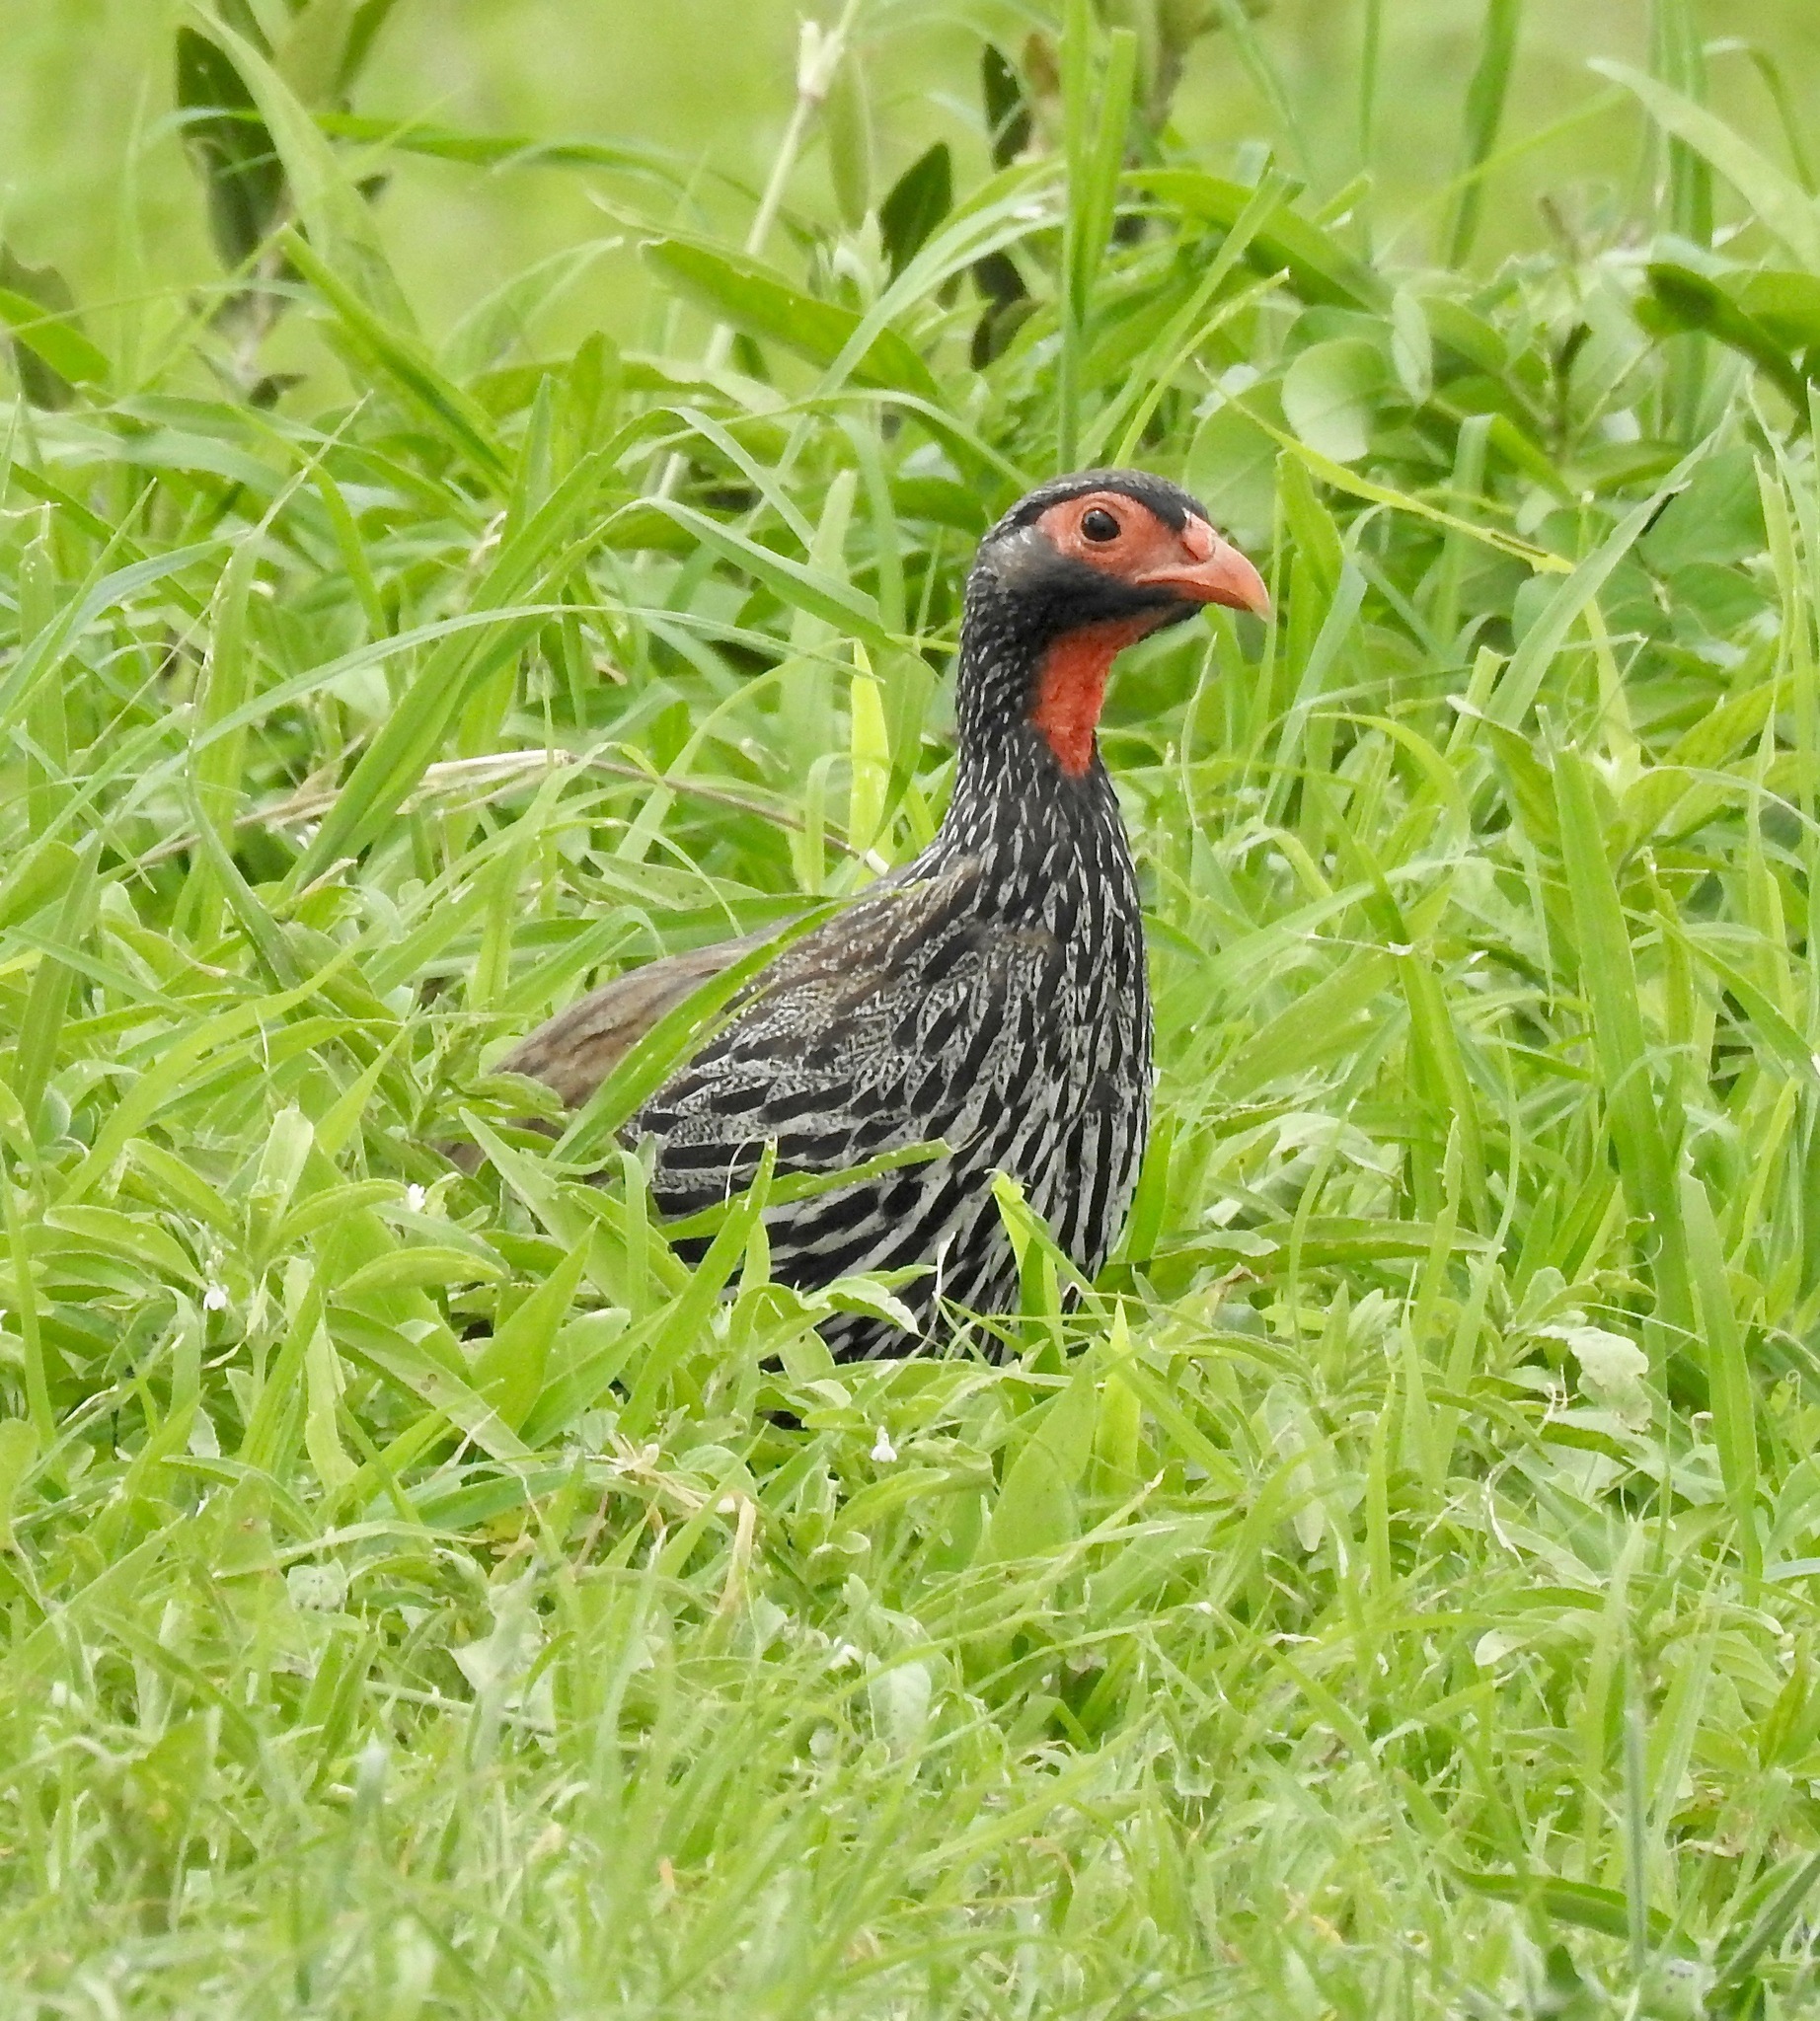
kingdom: Animalia
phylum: Chordata
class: Aves
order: Galliformes
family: Phasianidae
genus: Pternistis
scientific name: Pternistis afer
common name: Red-necked spurfowl
